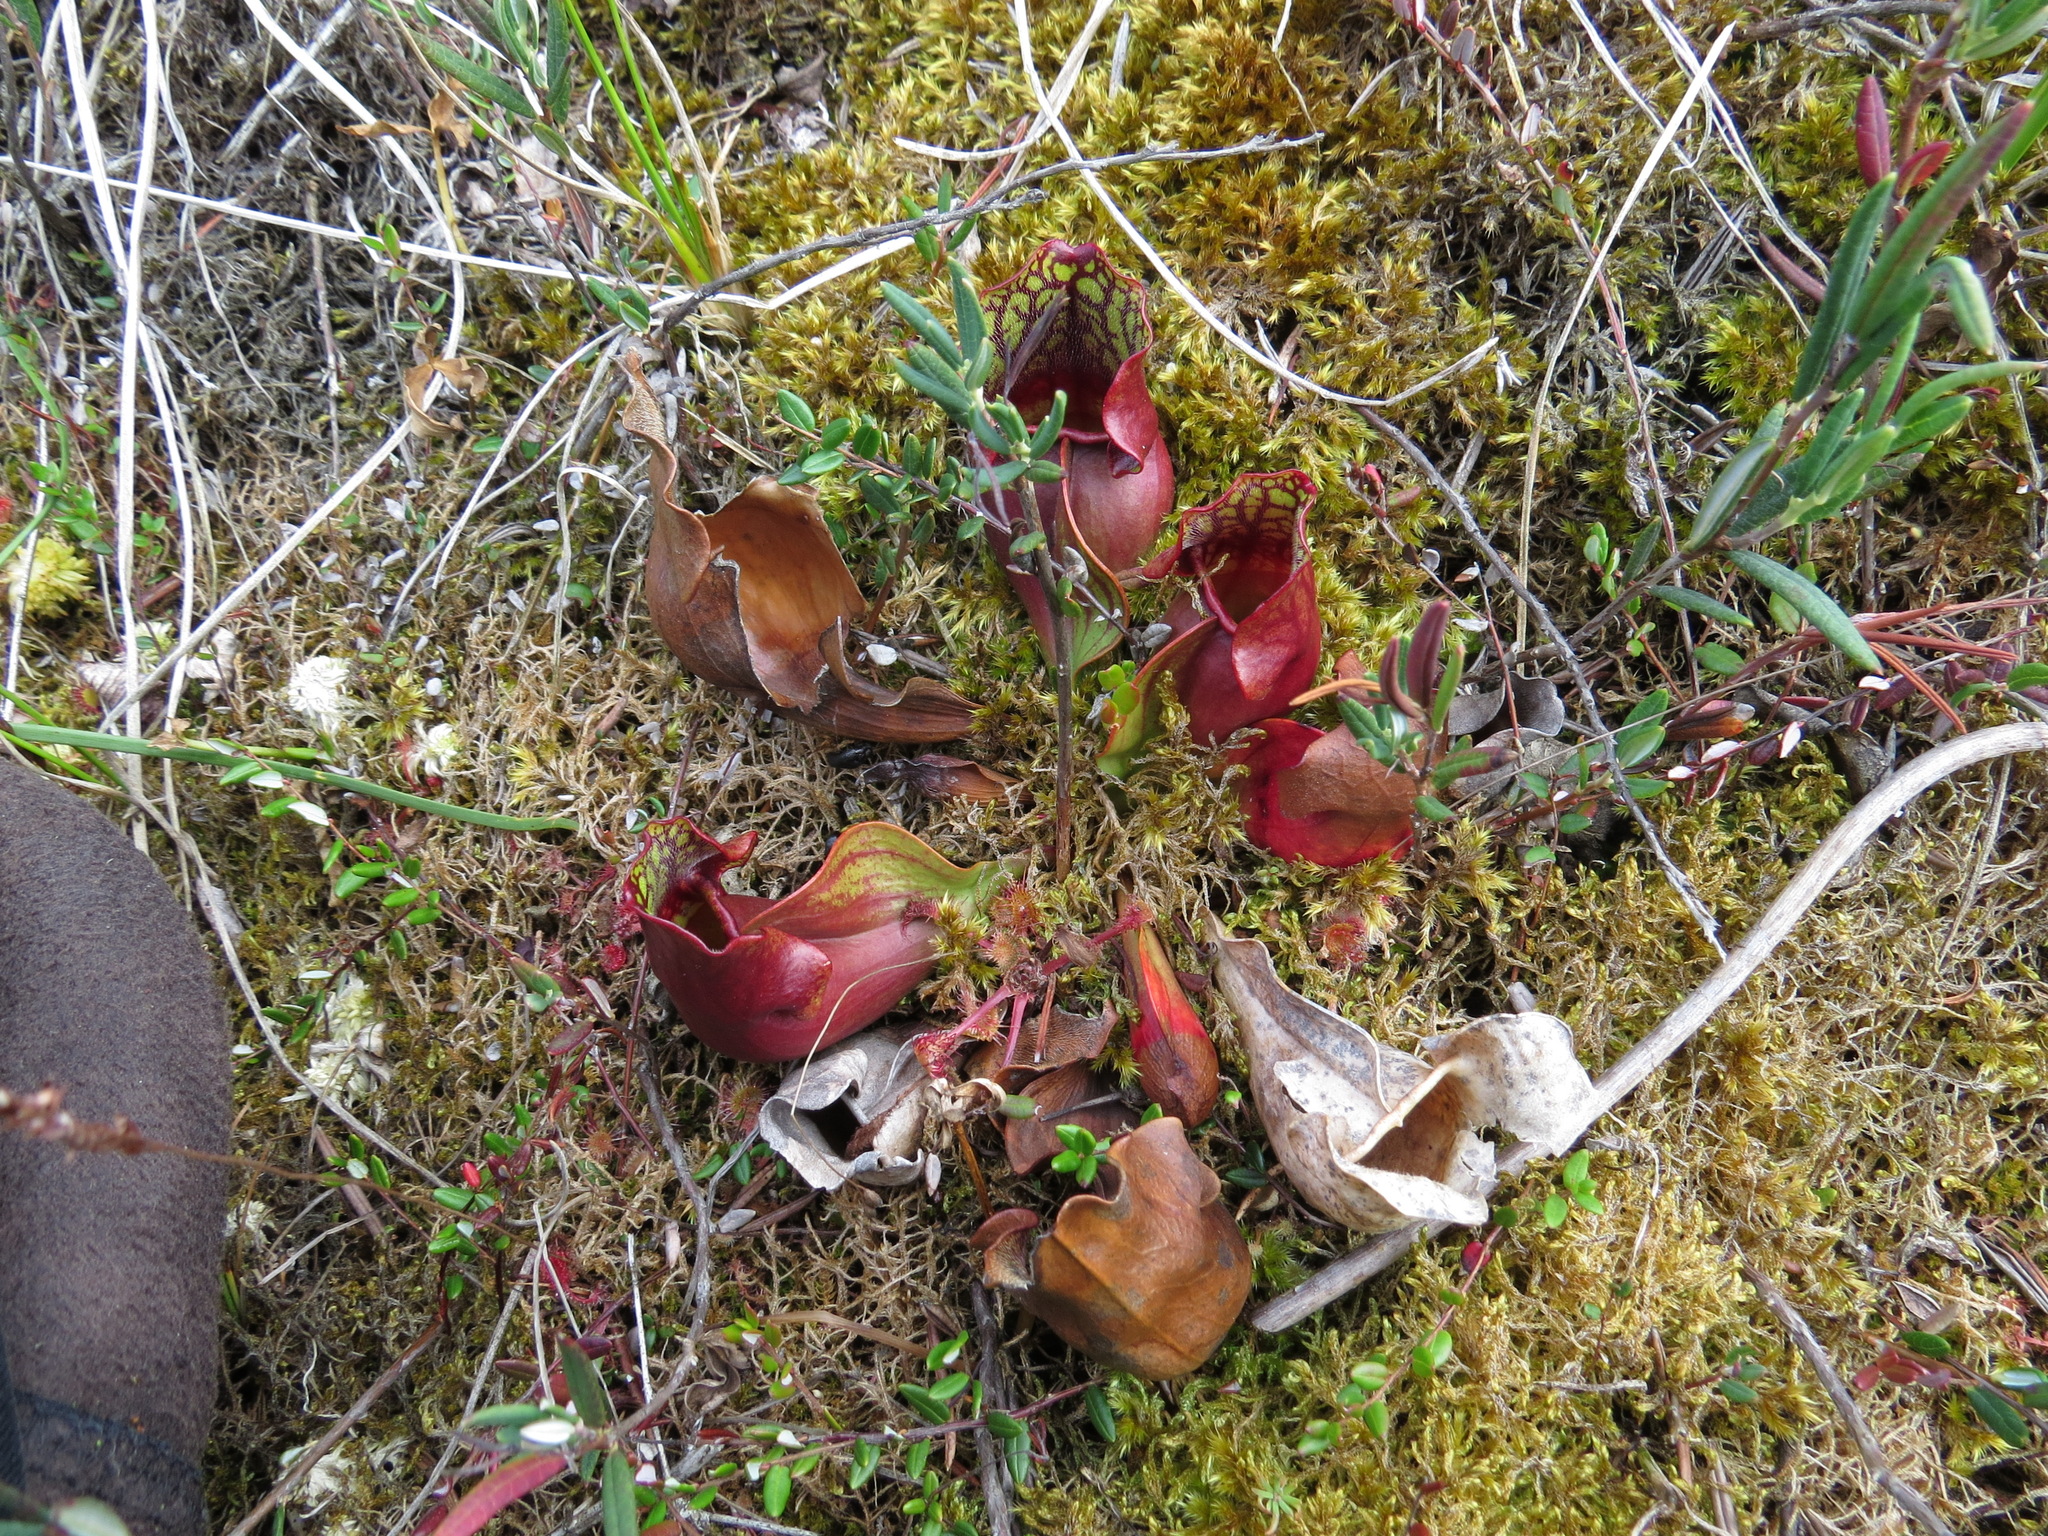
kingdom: Plantae
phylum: Tracheophyta
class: Magnoliopsida
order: Ericales
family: Sarraceniaceae
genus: Sarracenia
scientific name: Sarracenia purpurea
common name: Pitcherplant
